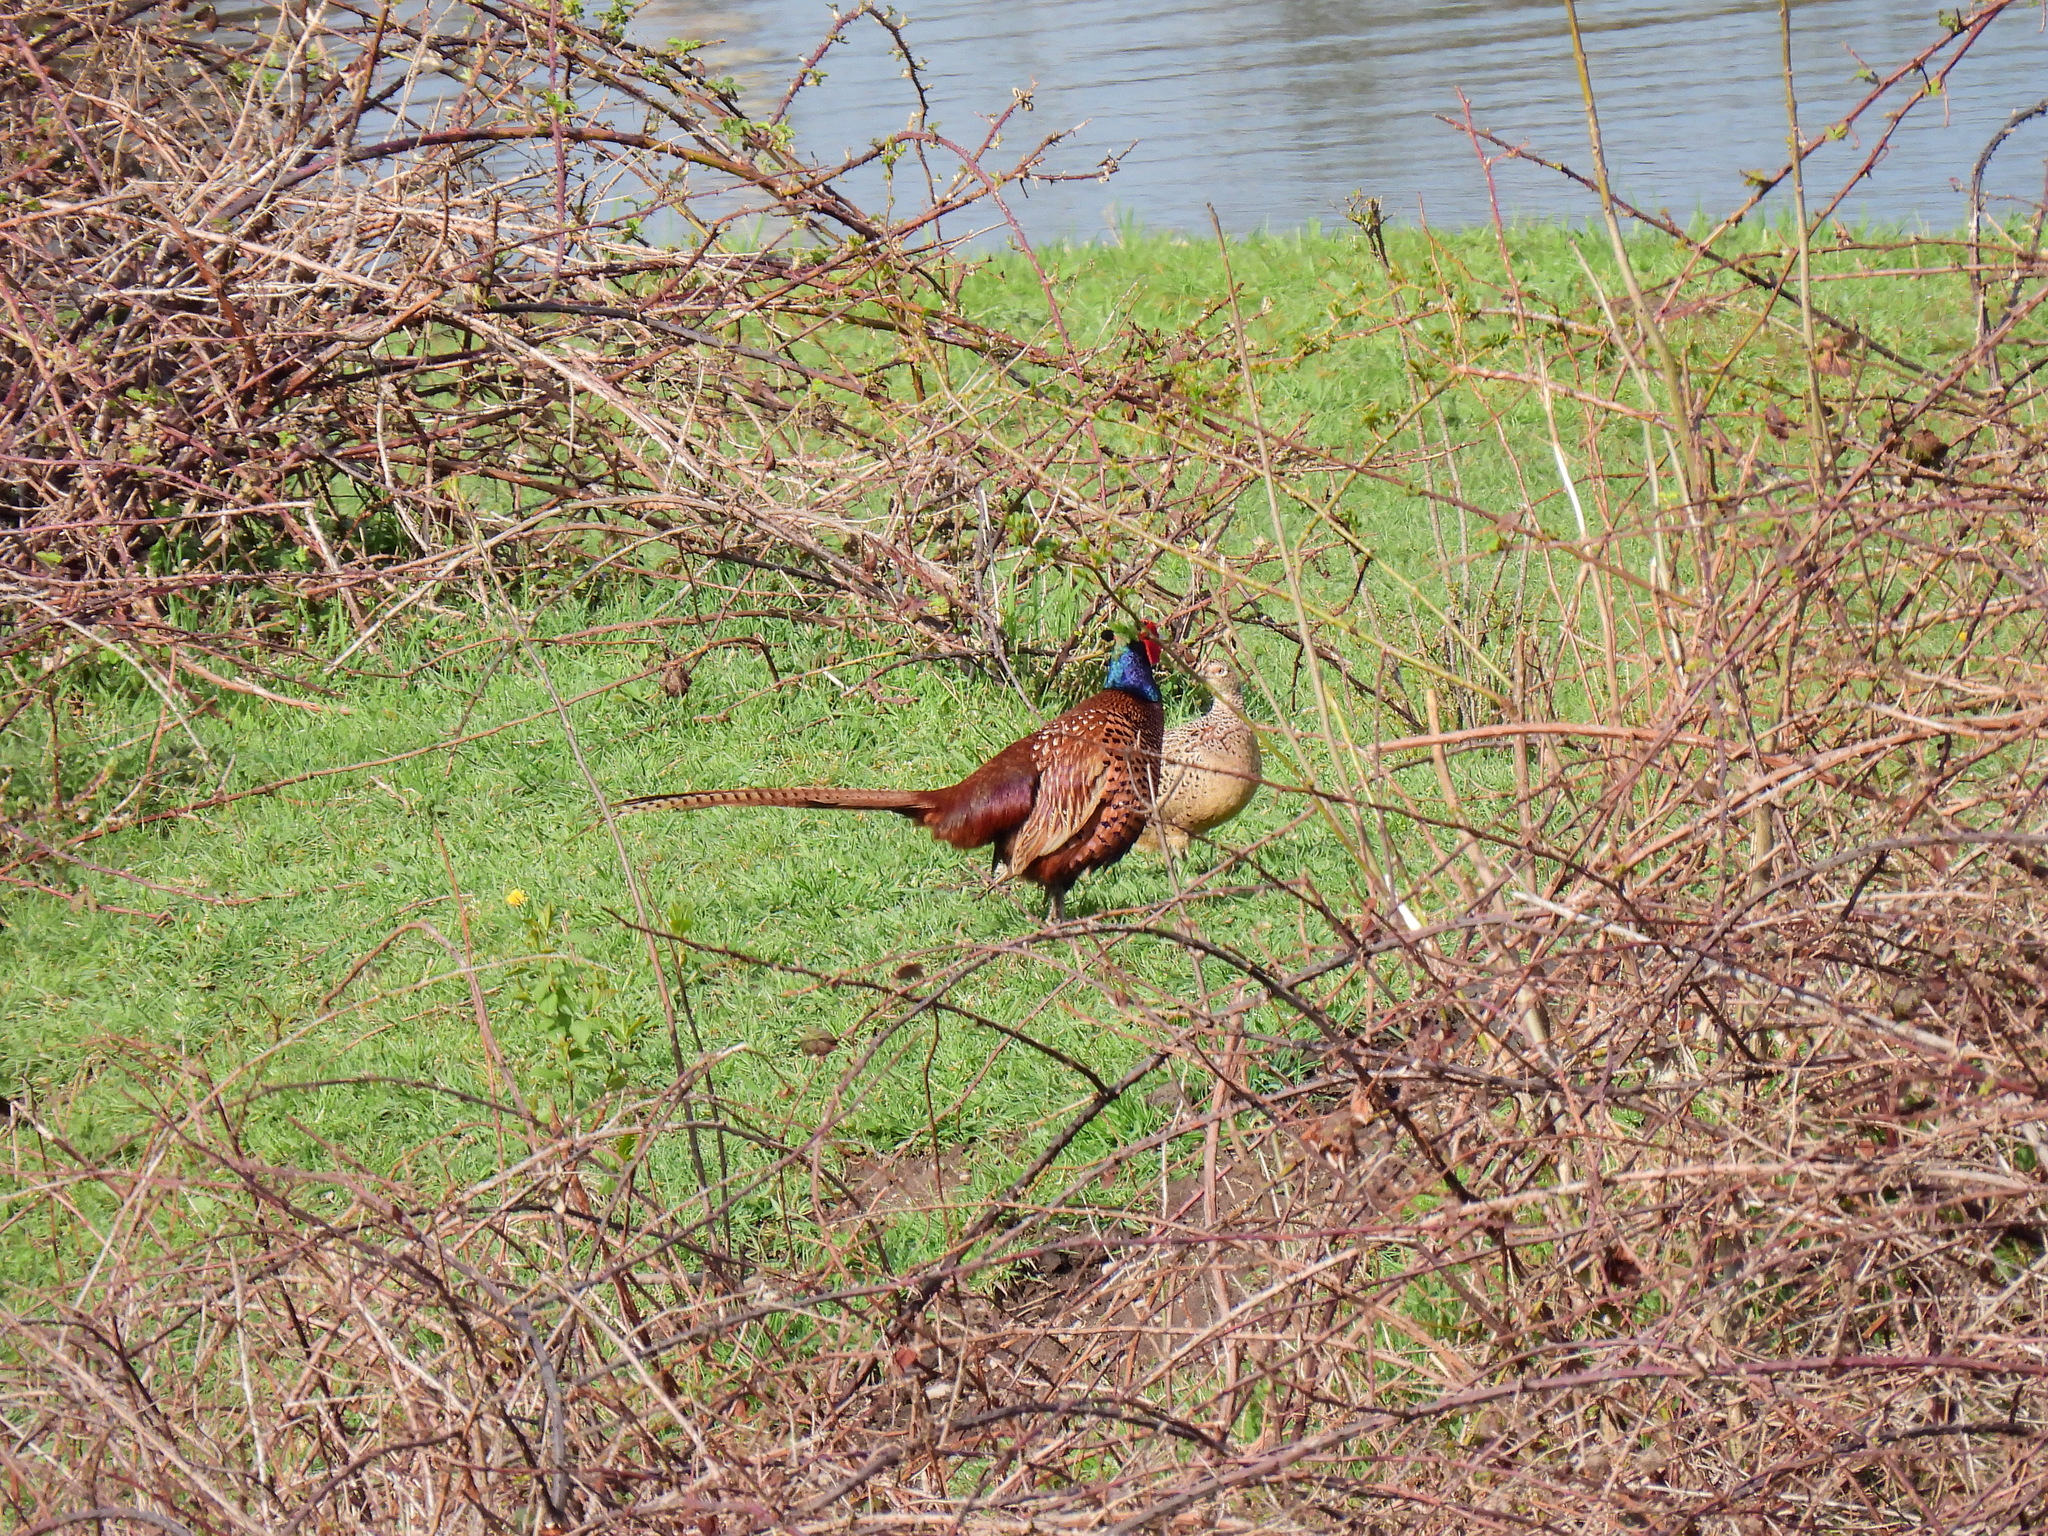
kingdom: Animalia
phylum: Chordata
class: Aves
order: Galliformes
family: Phasianidae
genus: Phasianus
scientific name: Phasianus colchicus
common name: Common pheasant
